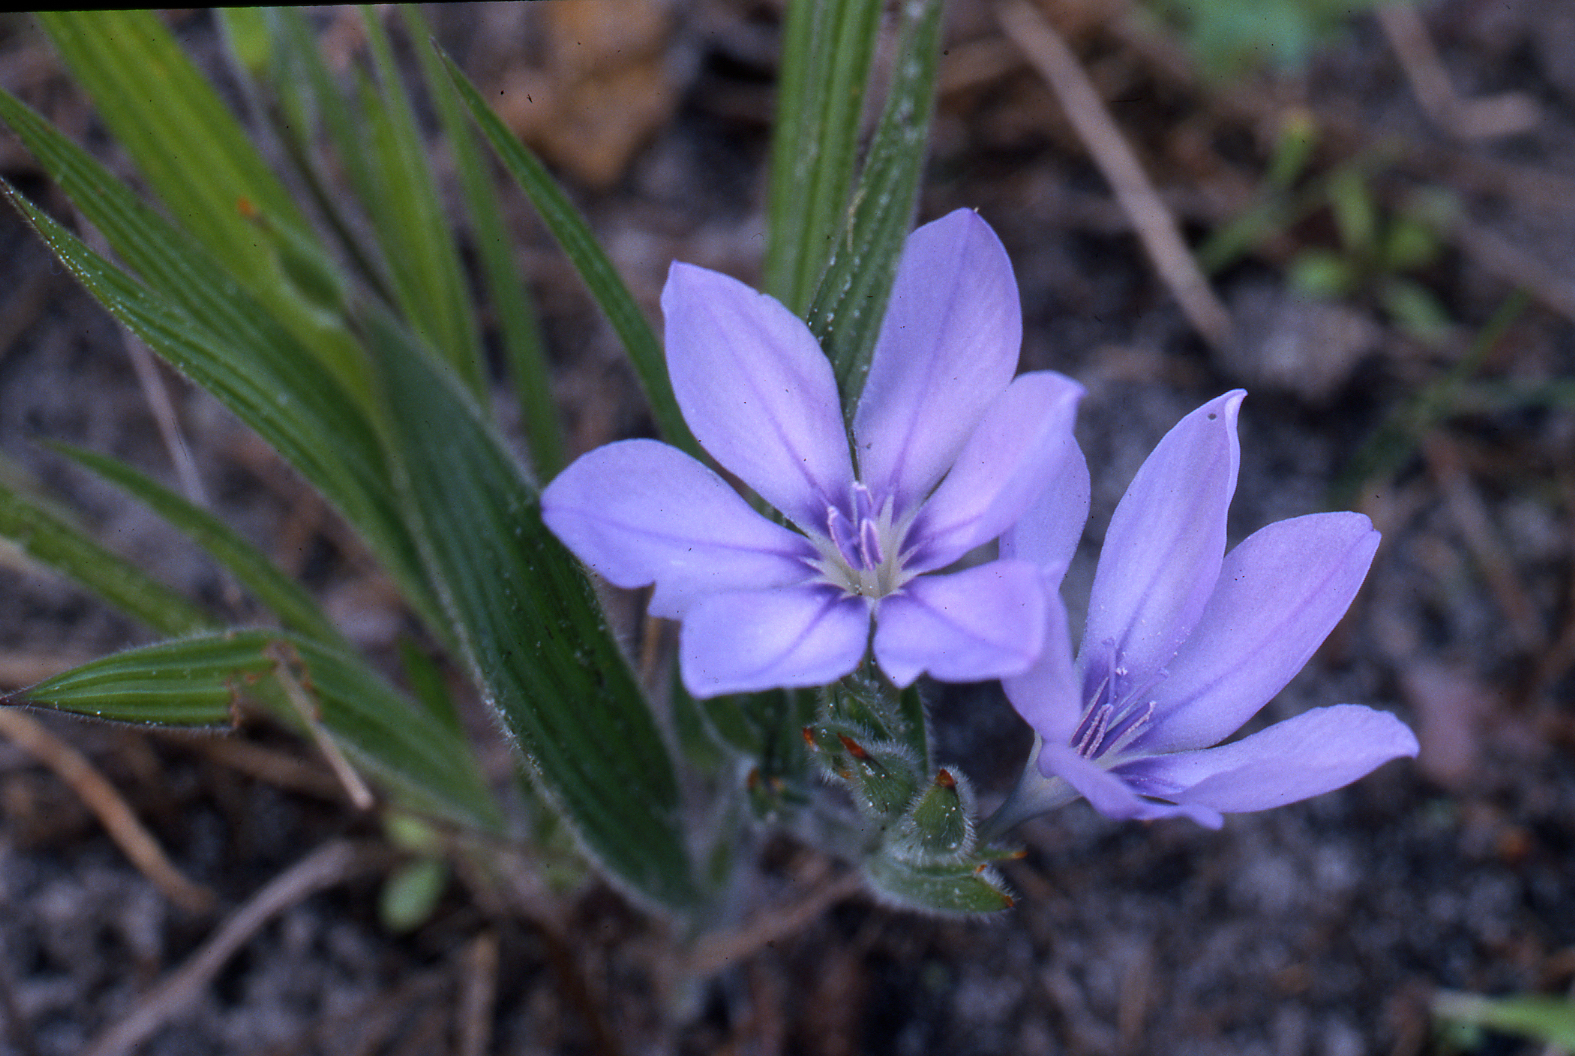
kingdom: Plantae
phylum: Tracheophyta
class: Liliopsida
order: Asparagales
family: Iridaceae
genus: Babiana
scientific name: Babiana villosula
